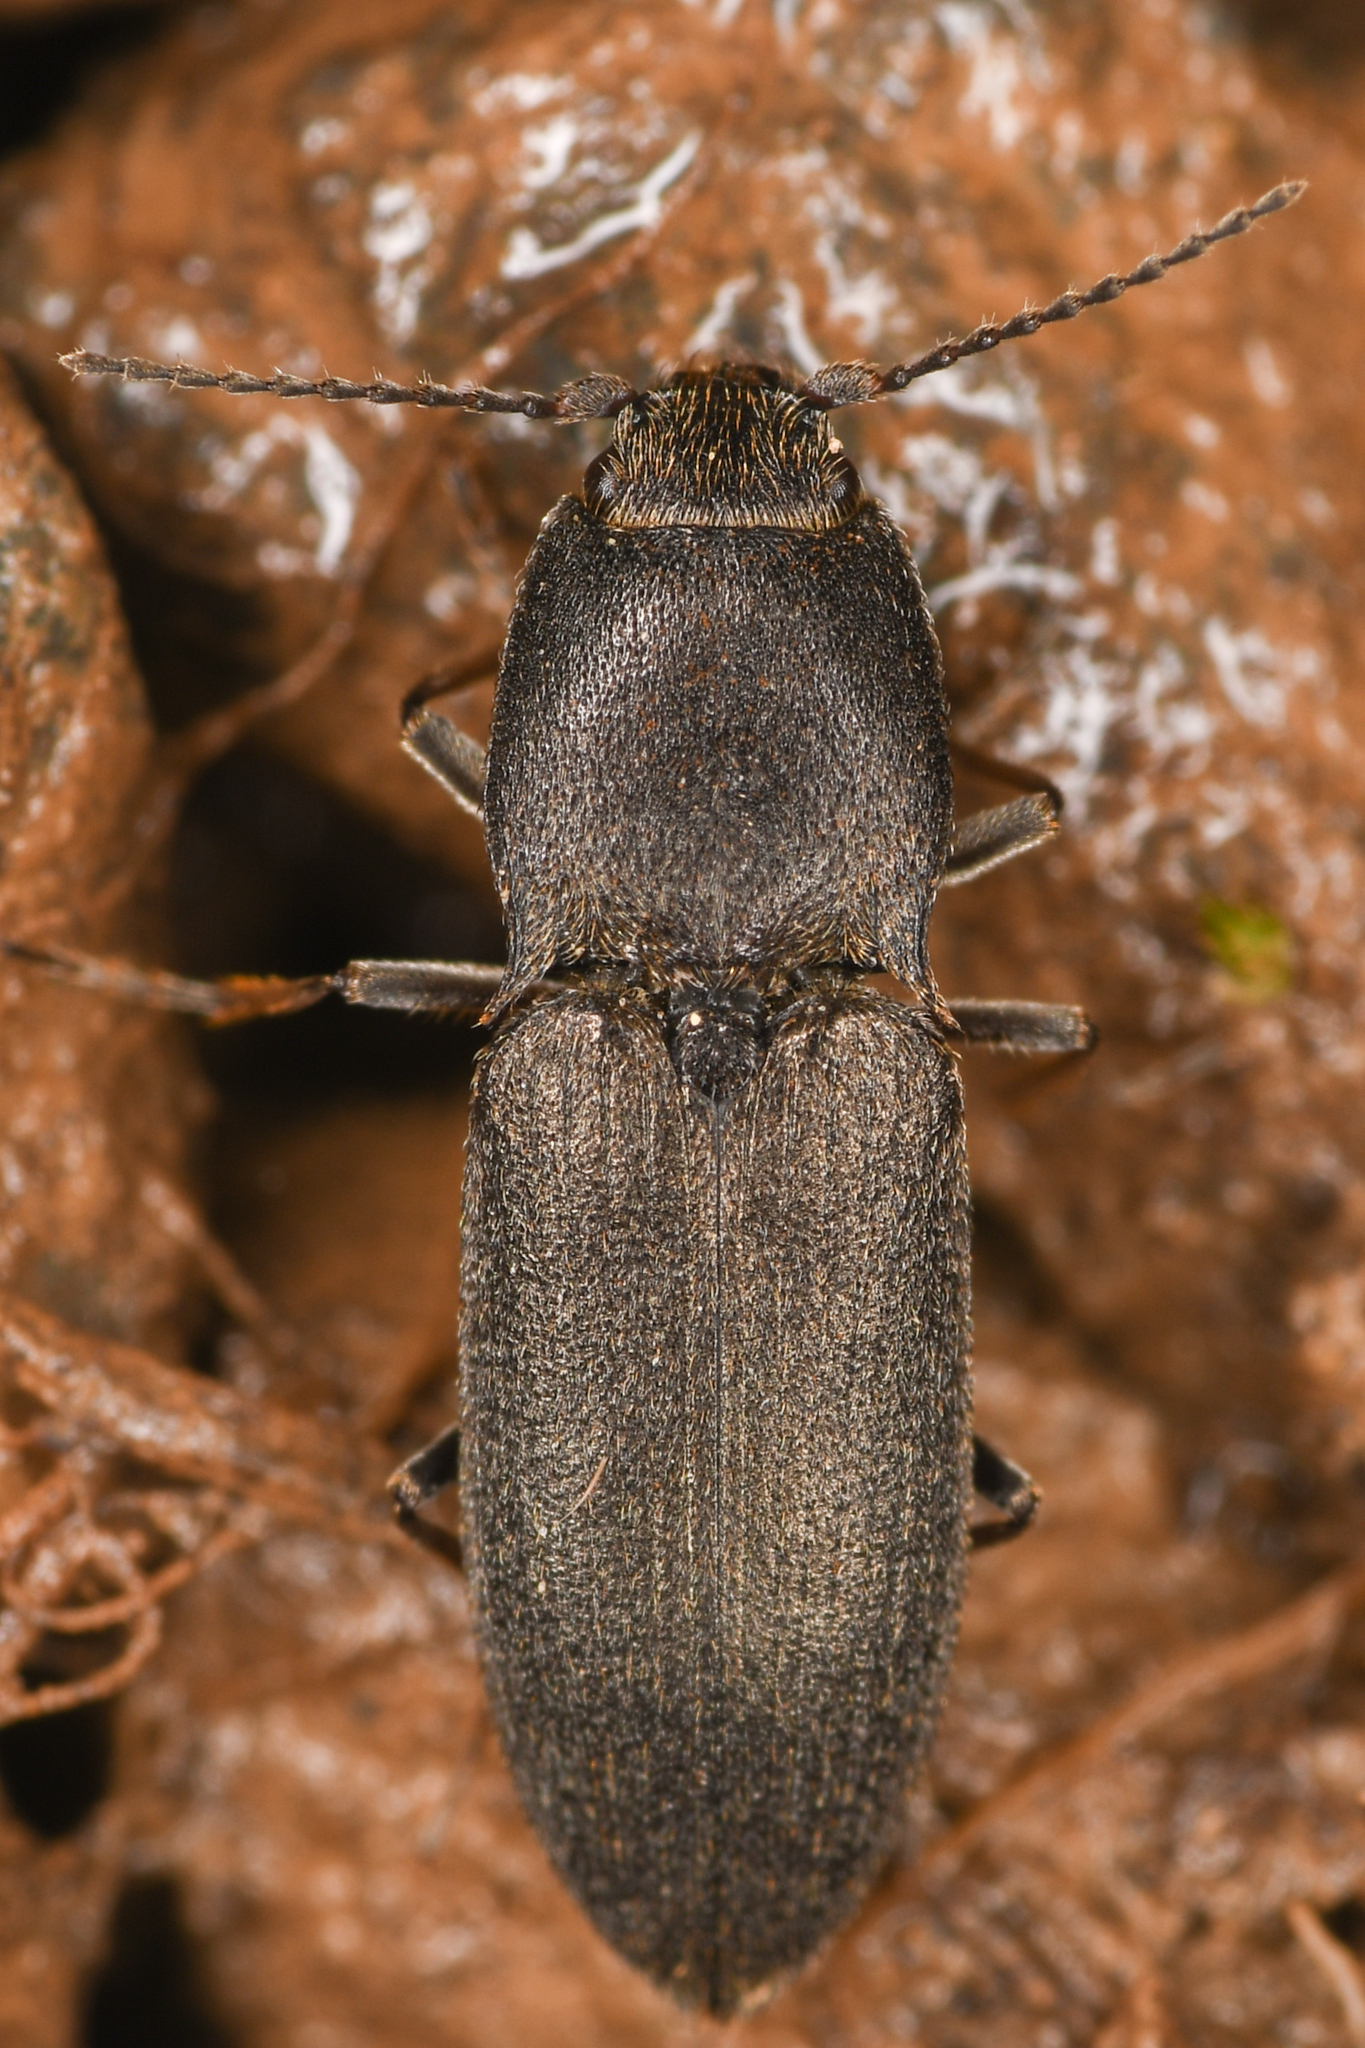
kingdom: Animalia
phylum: Arthropoda
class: Insecta
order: Coleoptera
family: Elateridae
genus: Ligmargus
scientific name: Ligmargus funebris
